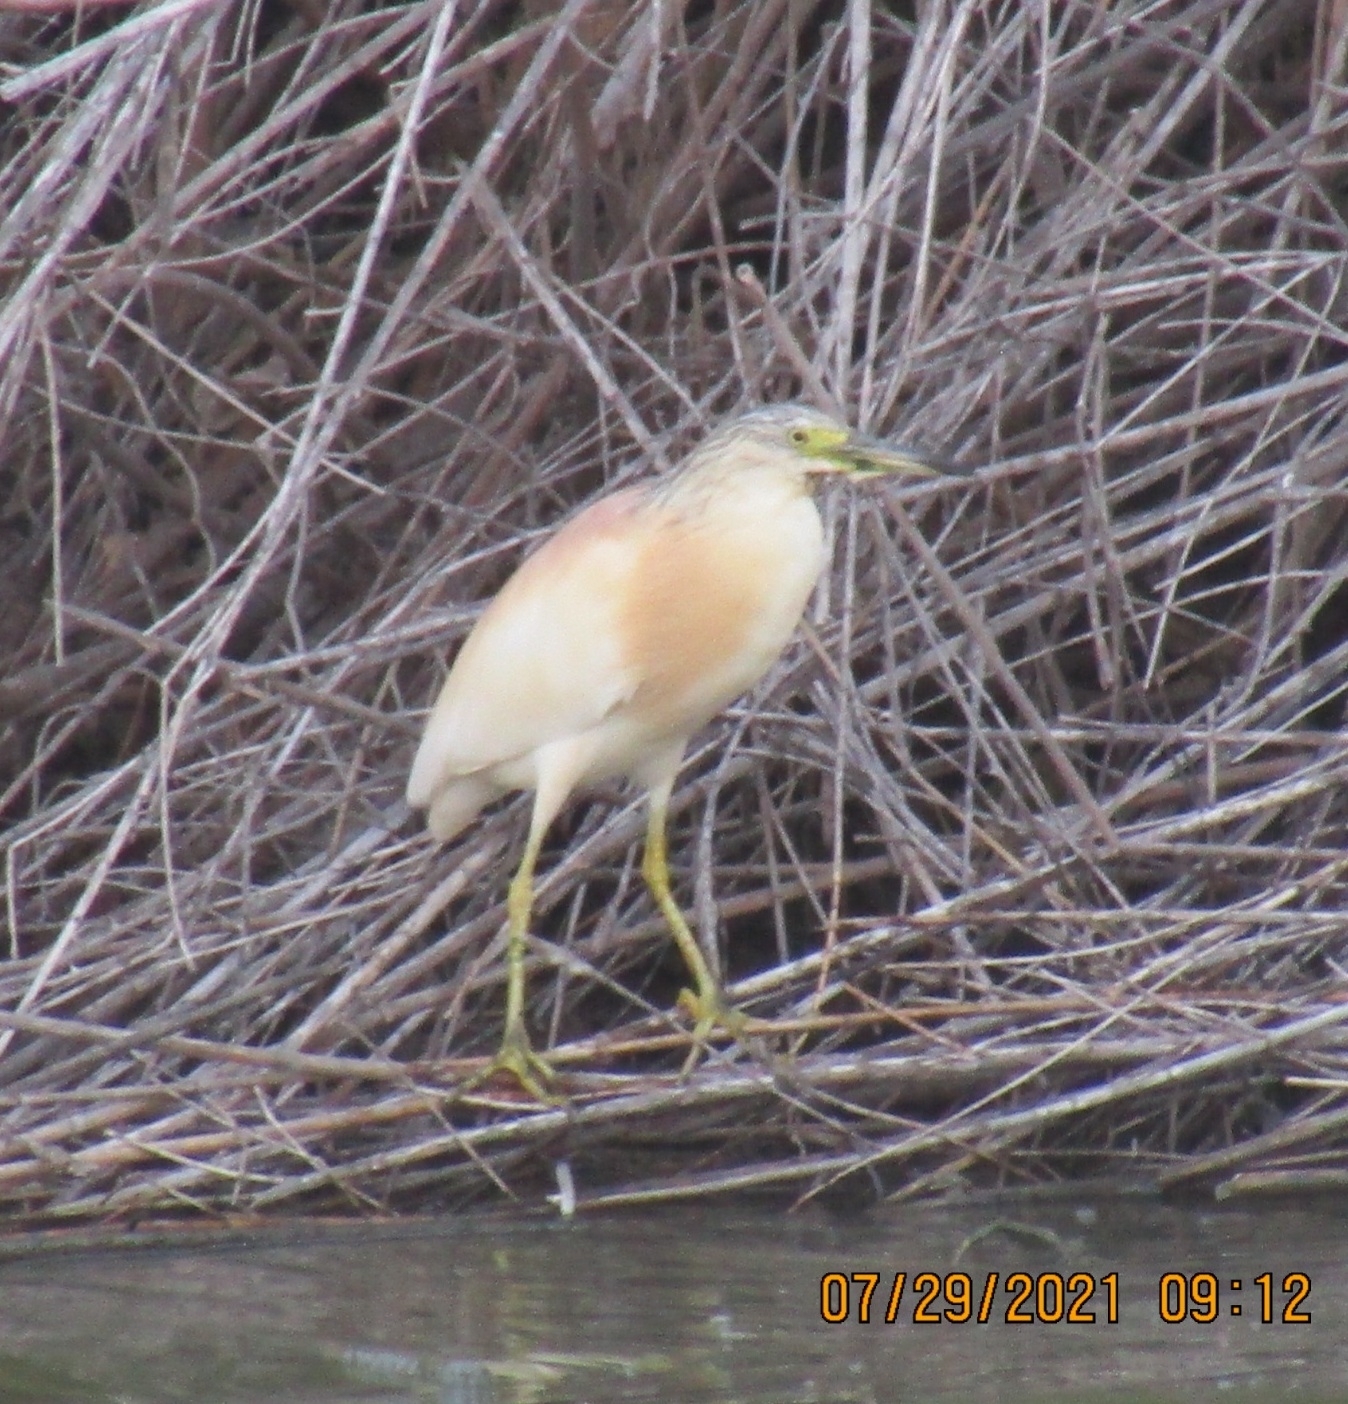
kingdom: Animalia
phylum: Chordata
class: Aves
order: Pelecaniformes
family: Ardeidae
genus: Ardeola
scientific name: Ardeola ralloides
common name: Squacco heron
